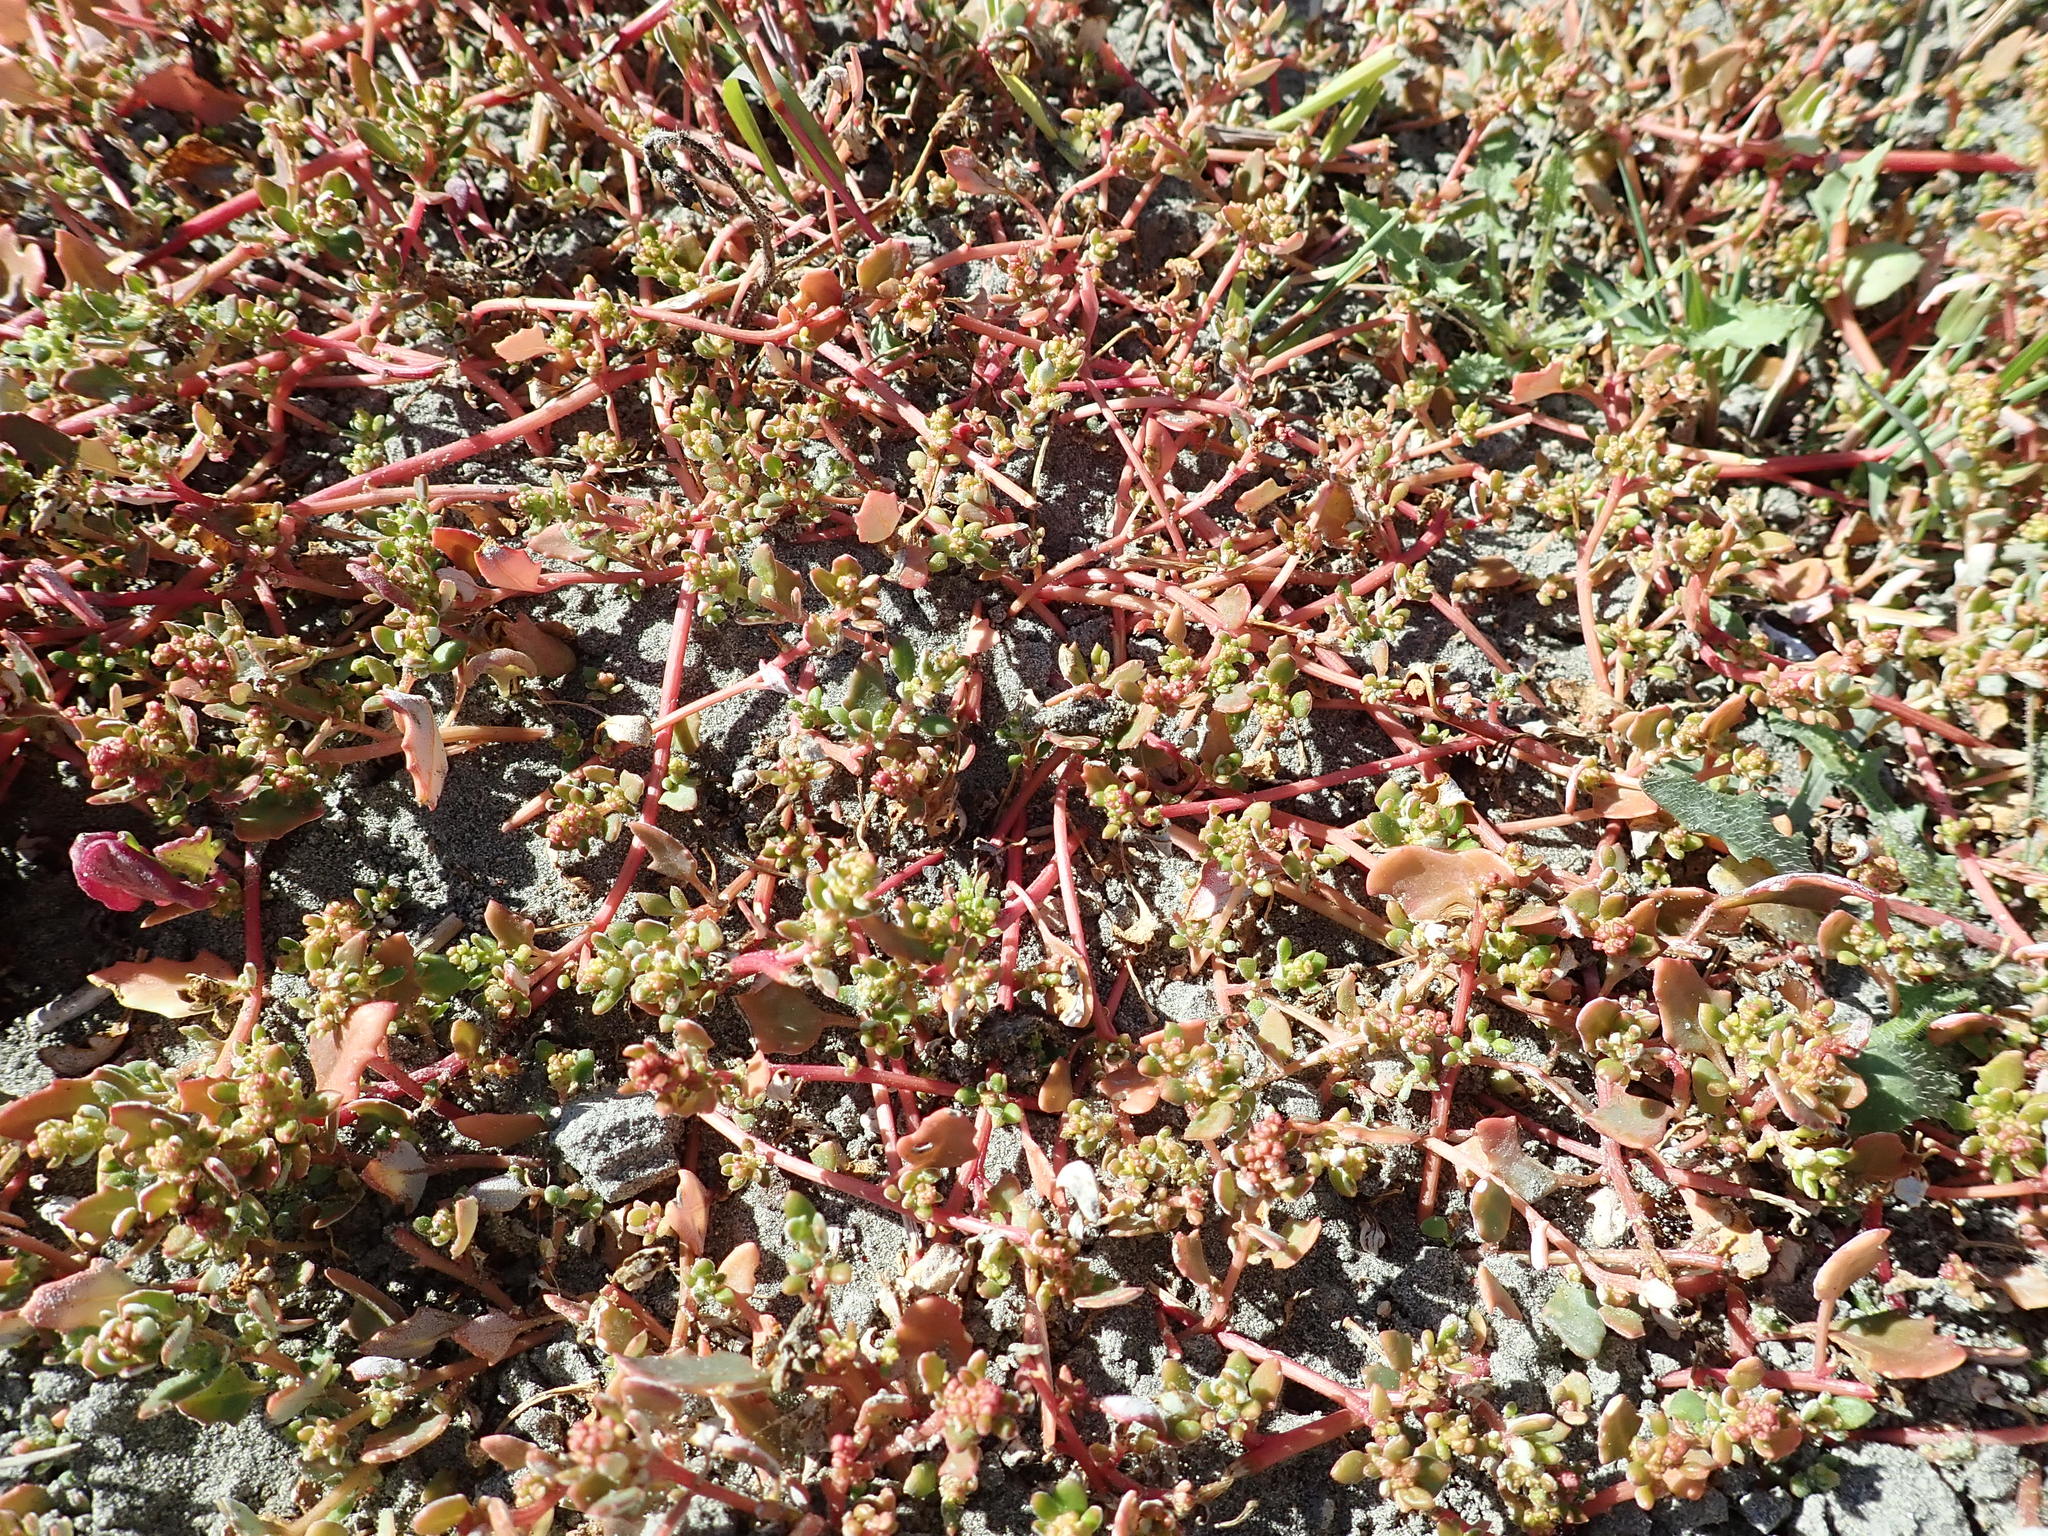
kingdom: Plantae
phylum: Tracheophyta
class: Magnoliopsida
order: Caryophyllales
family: Amaranthaceae
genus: Oxybasis
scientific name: Oxybasis ambigua
